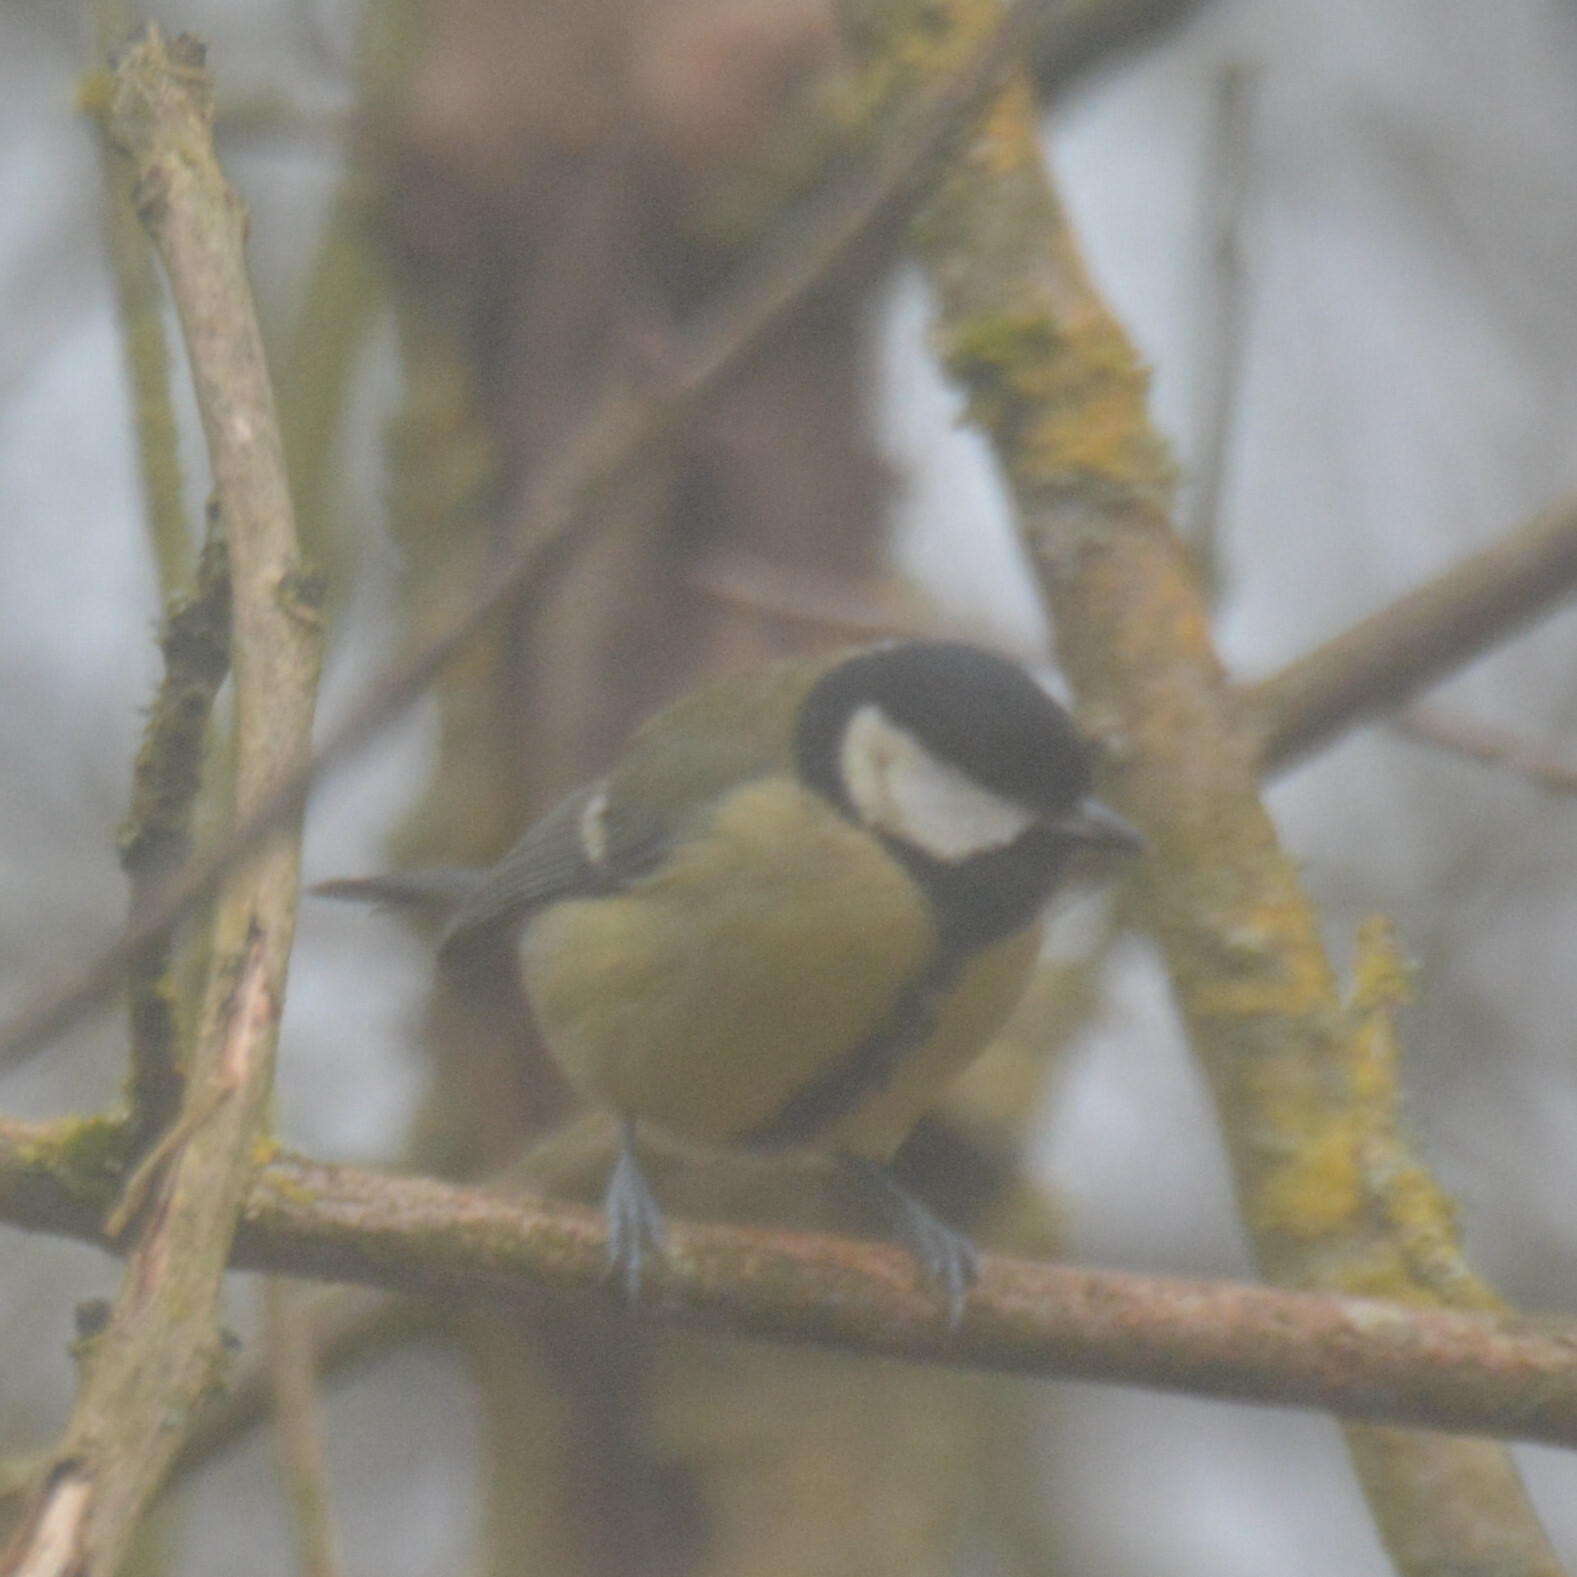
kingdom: Animalia
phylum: Chordata
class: Aves
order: Passeriformes
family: Paridae
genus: Parus
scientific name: Parus major
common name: Great tit
